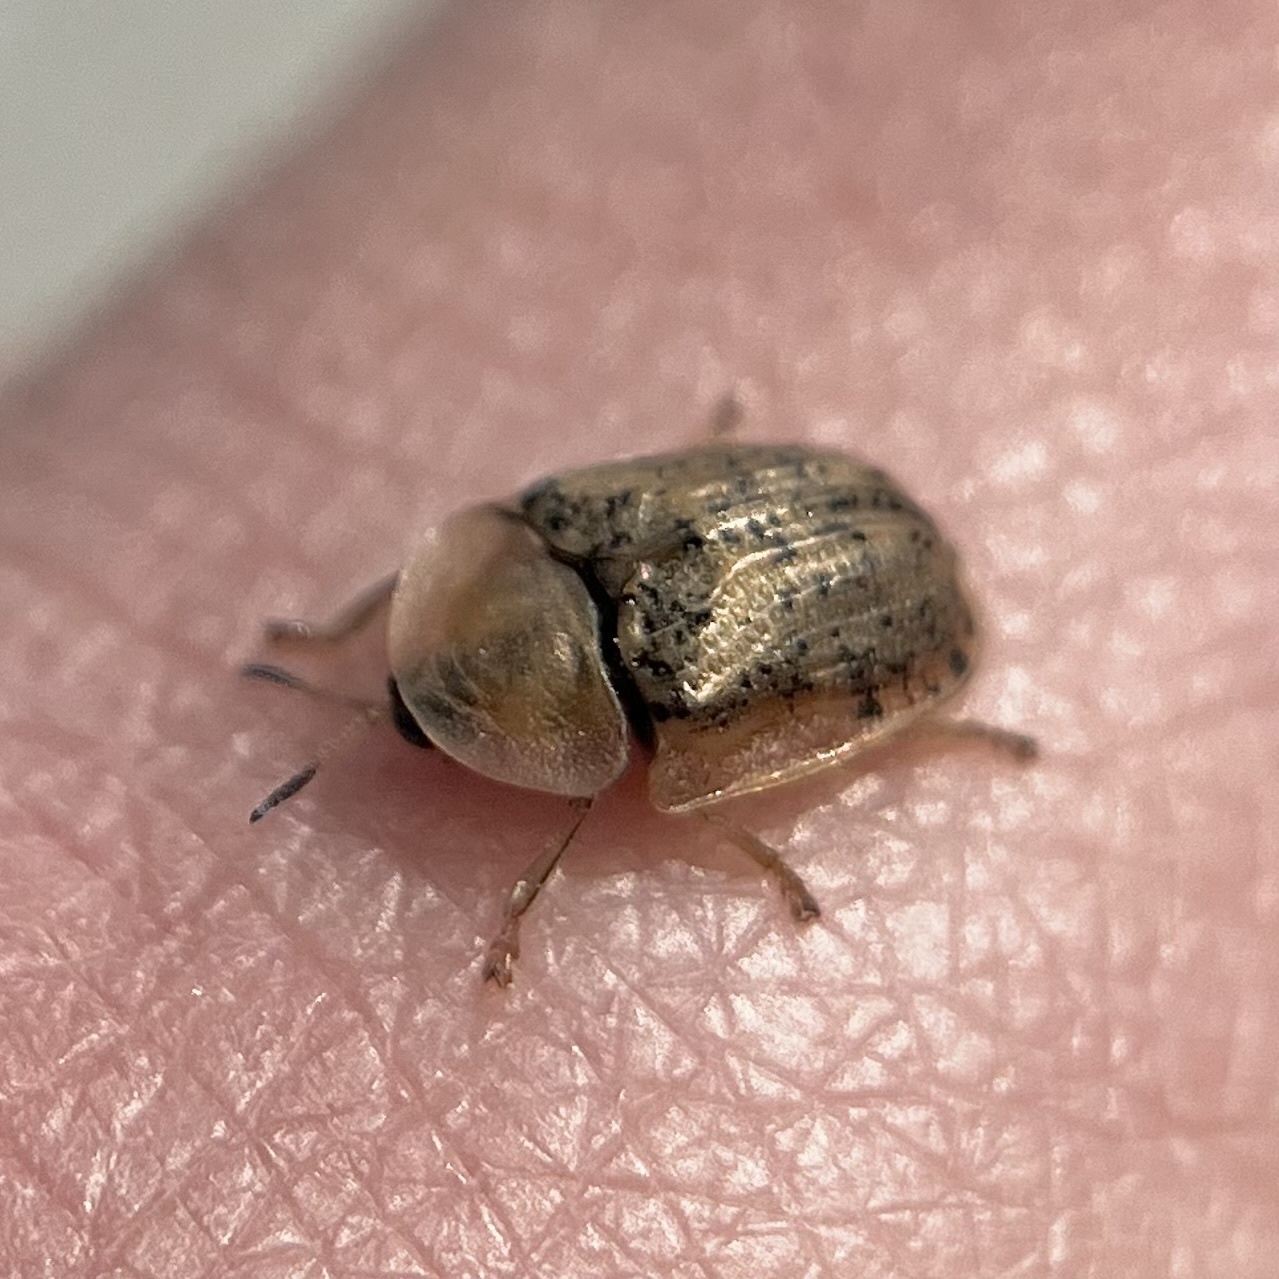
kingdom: Animalia
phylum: Arthropoda
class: Insecta
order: Coleoptera
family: Chrysomelidae
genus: Cassida
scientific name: Cassida nebulosa
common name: Beet tortoise beetle
